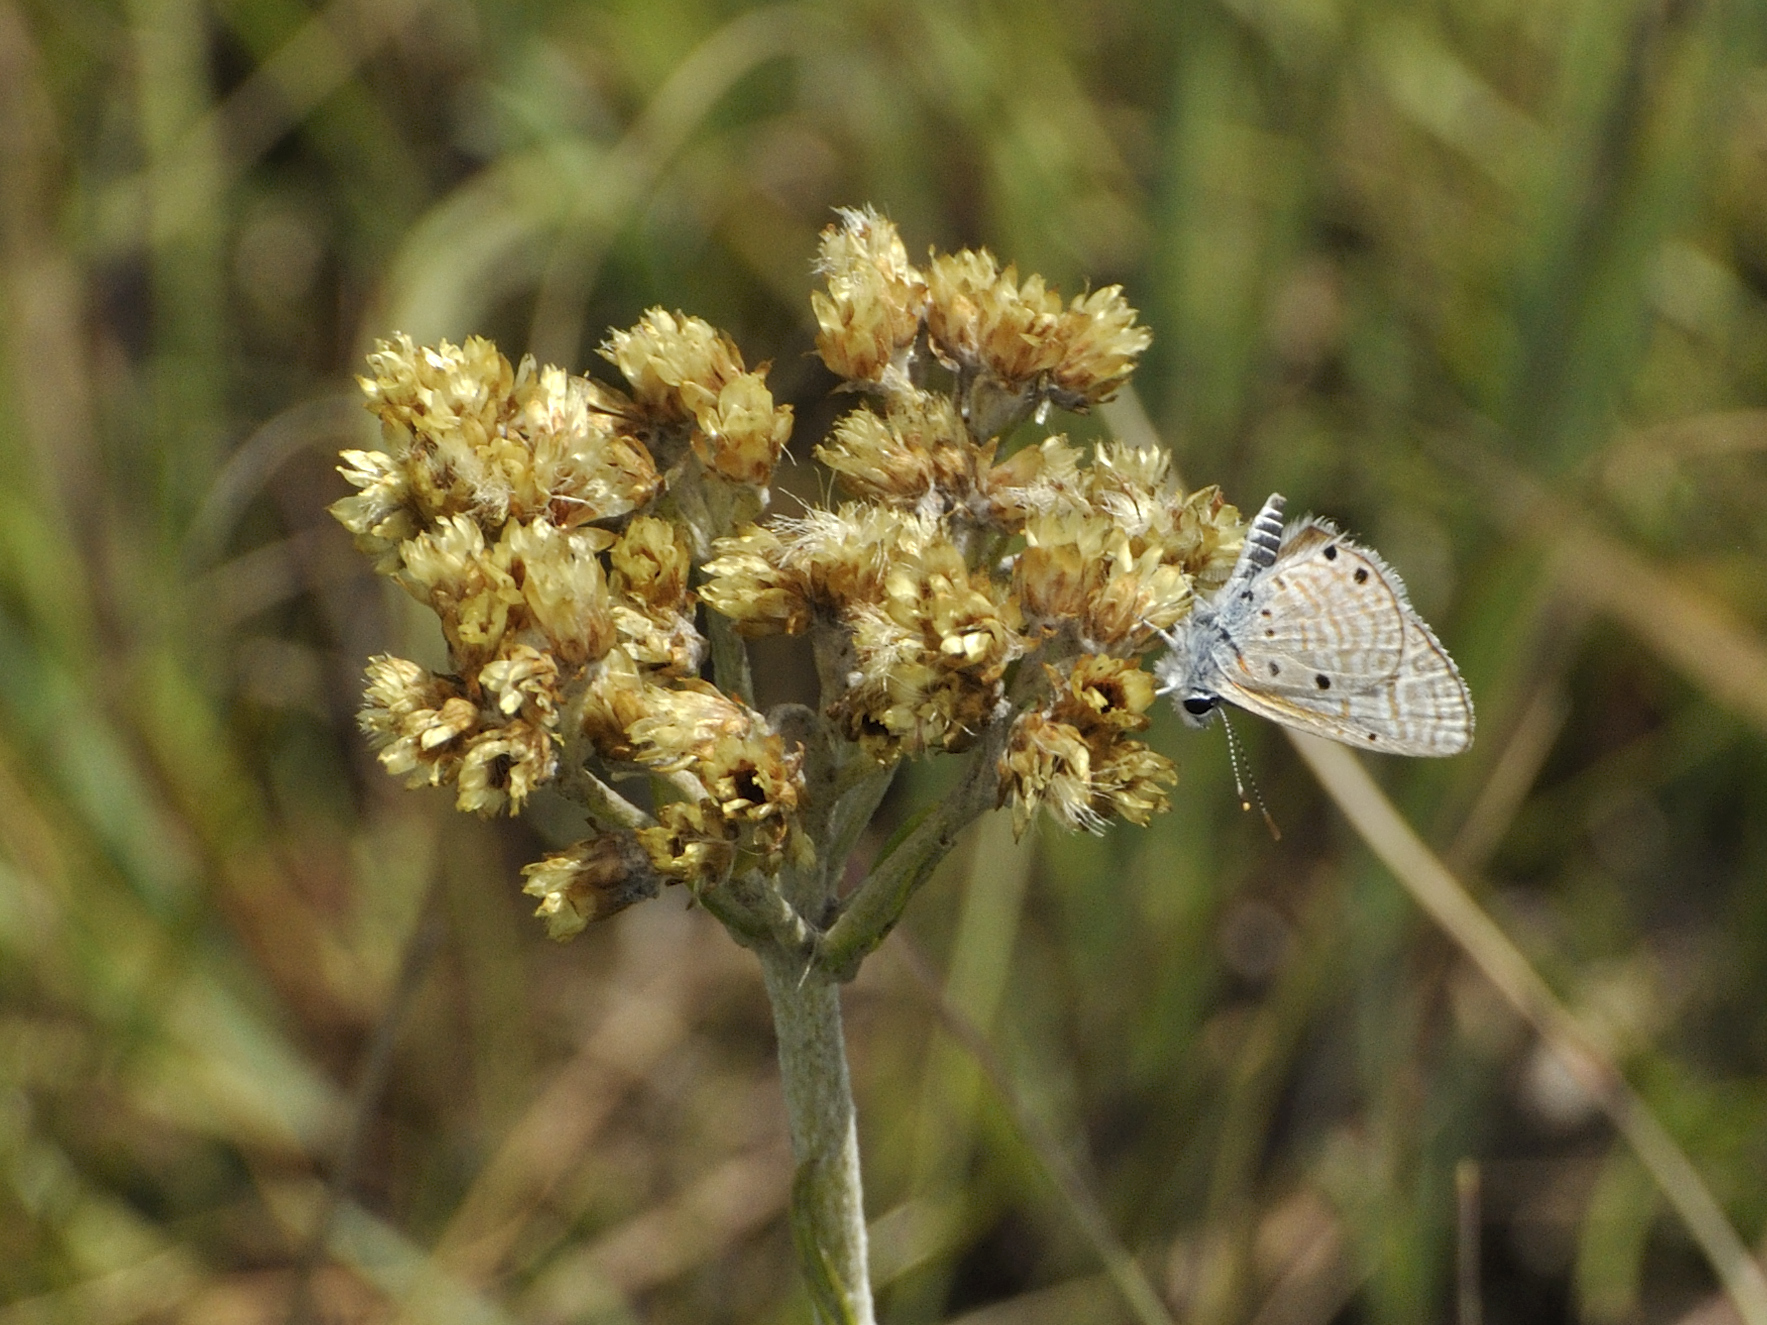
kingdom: Animalia
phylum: Arthropoda
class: Insecta
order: Lepidoptera
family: Lycaenidae
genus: Azanus
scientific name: Azanus ubaldus
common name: Desert babul blue
